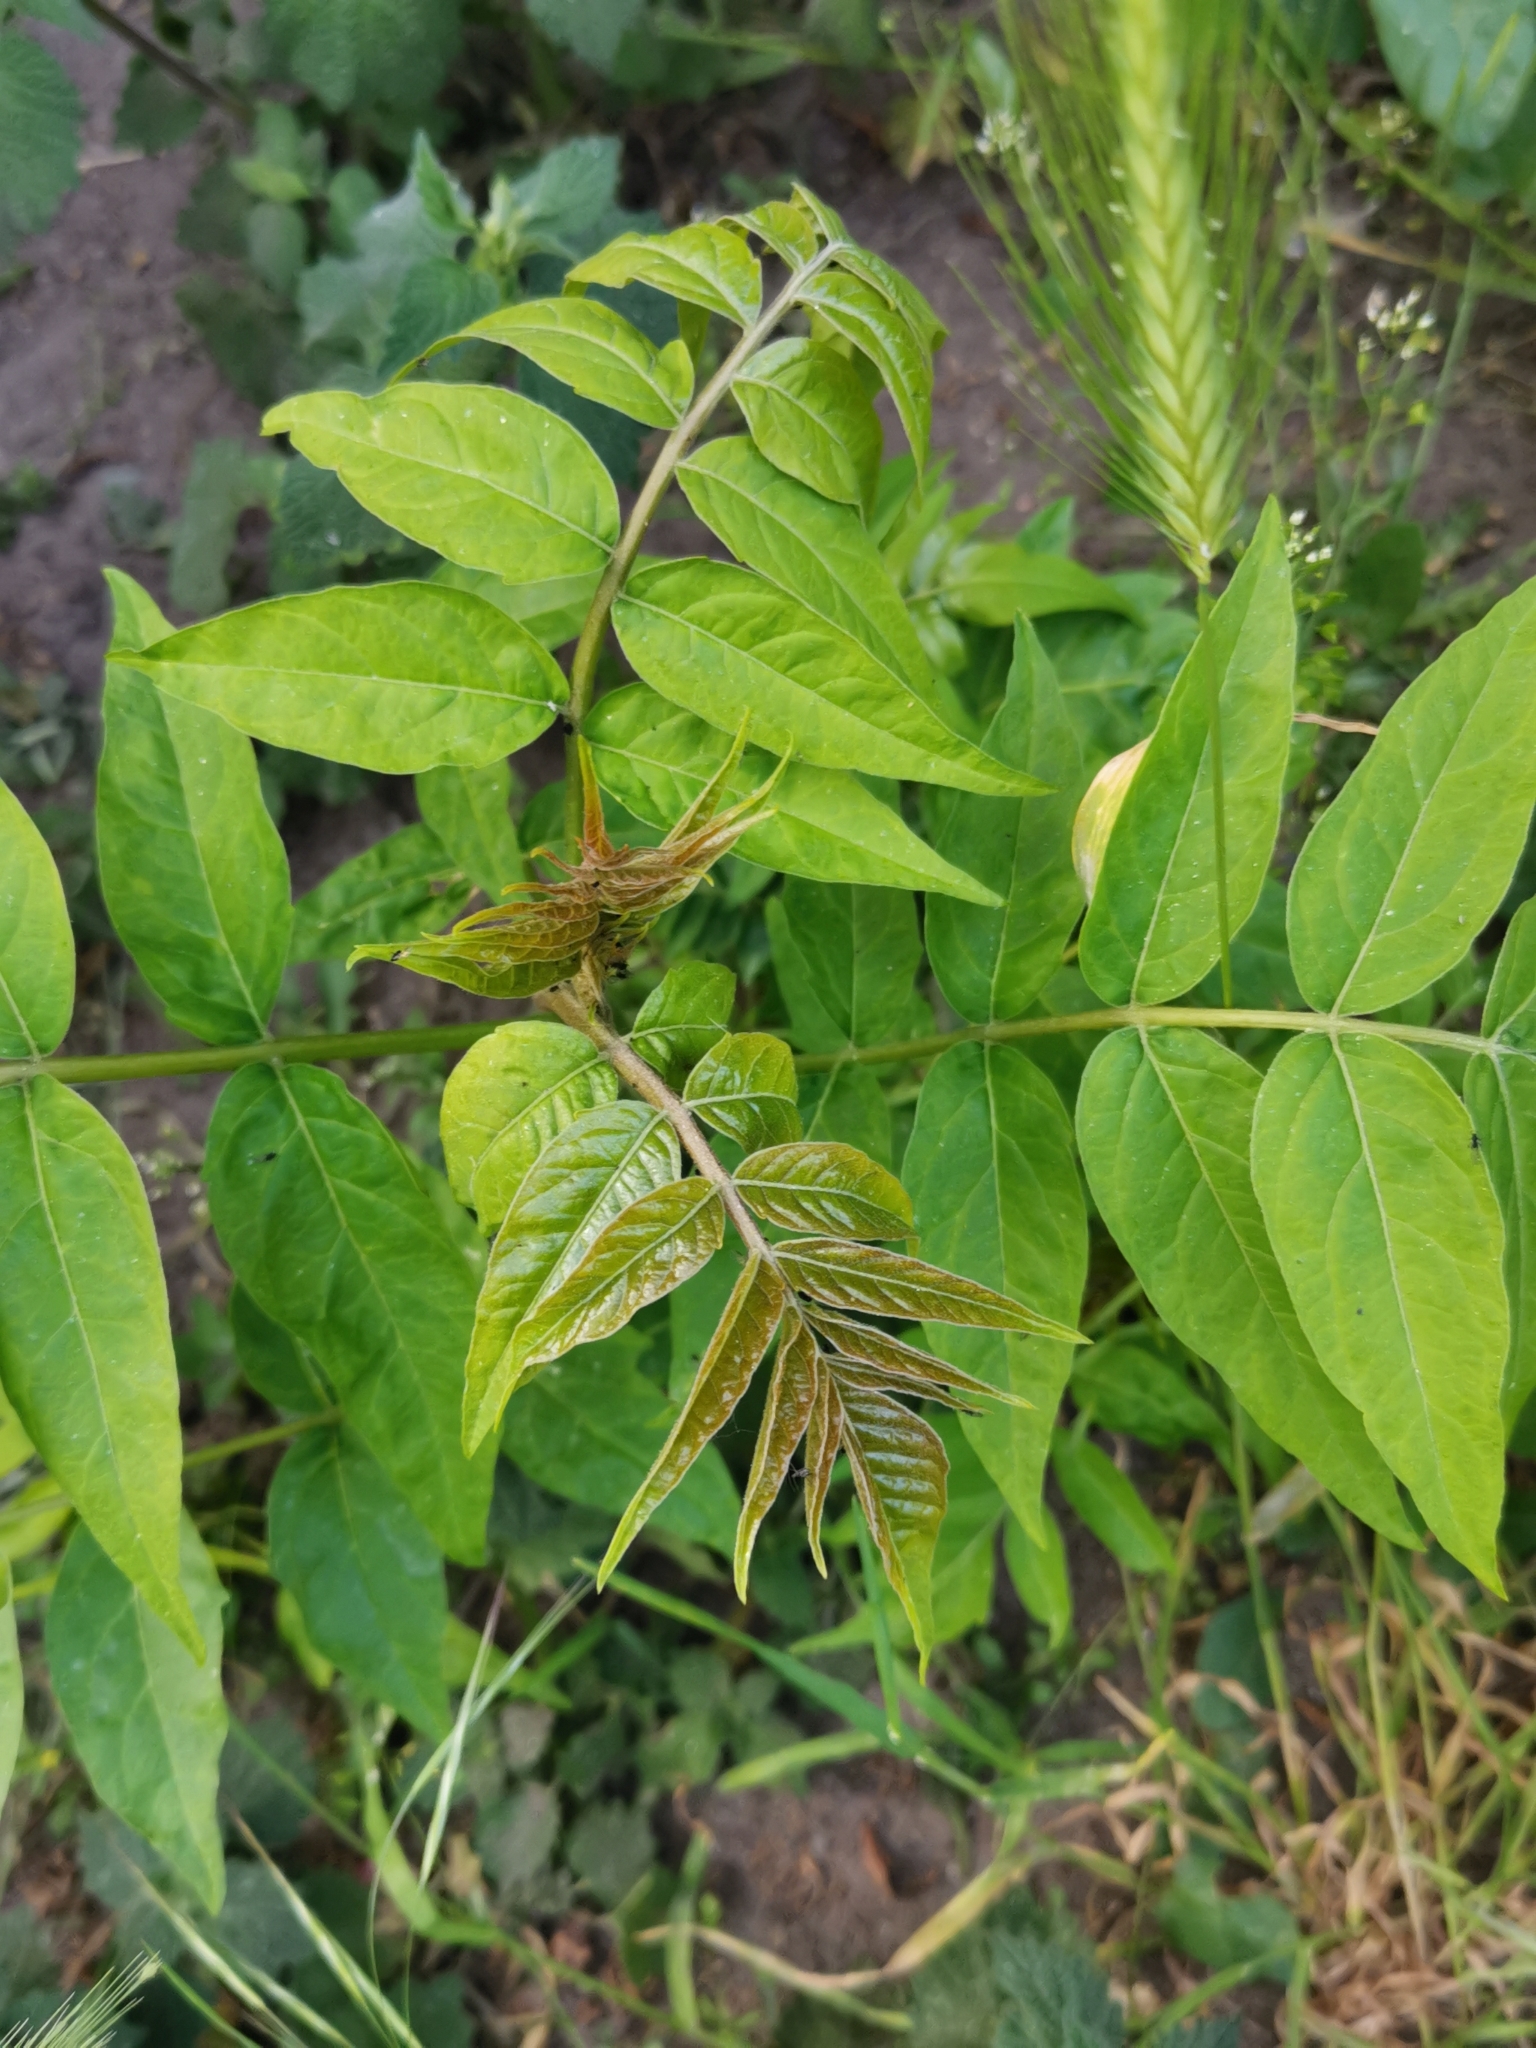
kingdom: Plantae
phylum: Tracheophyta
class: Magnoliopsida
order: Sapindales
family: Simaroubaceae
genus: Ailanthus
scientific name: Ailanthus altissima
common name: Tree-of-heaven
